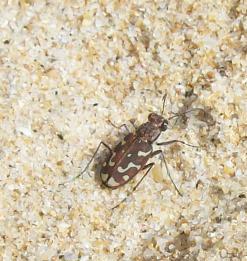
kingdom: Animalia
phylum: Arthropoda
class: Insecta
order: Coleoptera
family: Carabidae
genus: Lophyra
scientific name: Lophyra flexuosa
